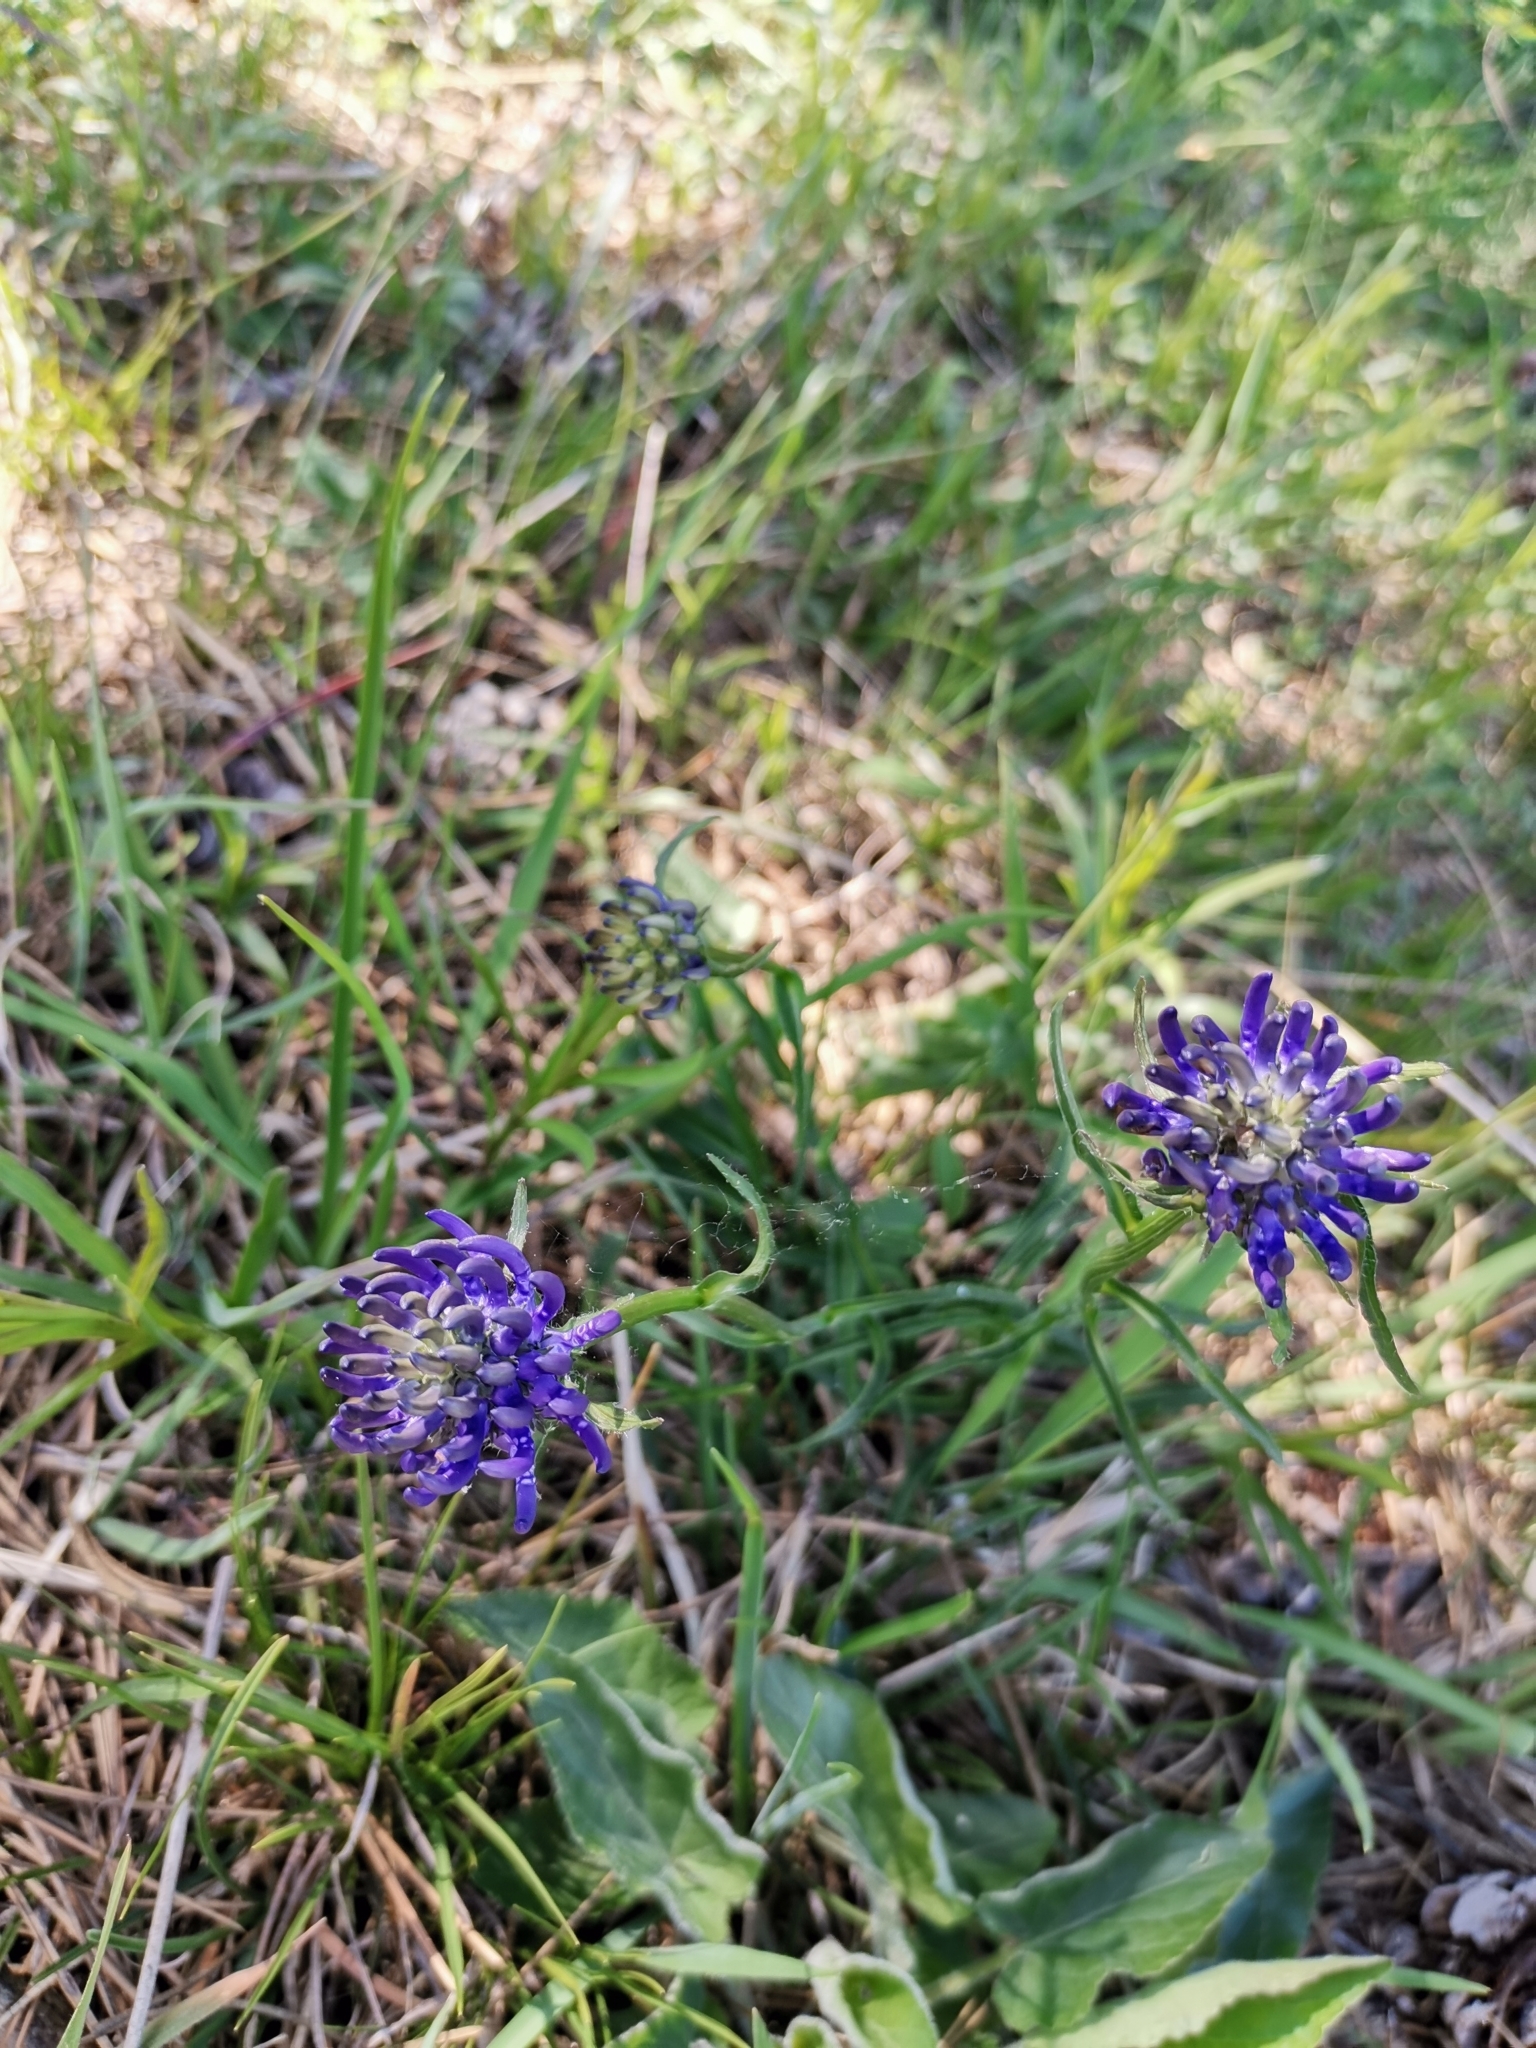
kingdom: Plantae
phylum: Tracheophyta
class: Magnoliopsida
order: Asterales
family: Campanulaceae
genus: Phyteuma
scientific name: Phyteuma orbiculare
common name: Round-headed rampion
